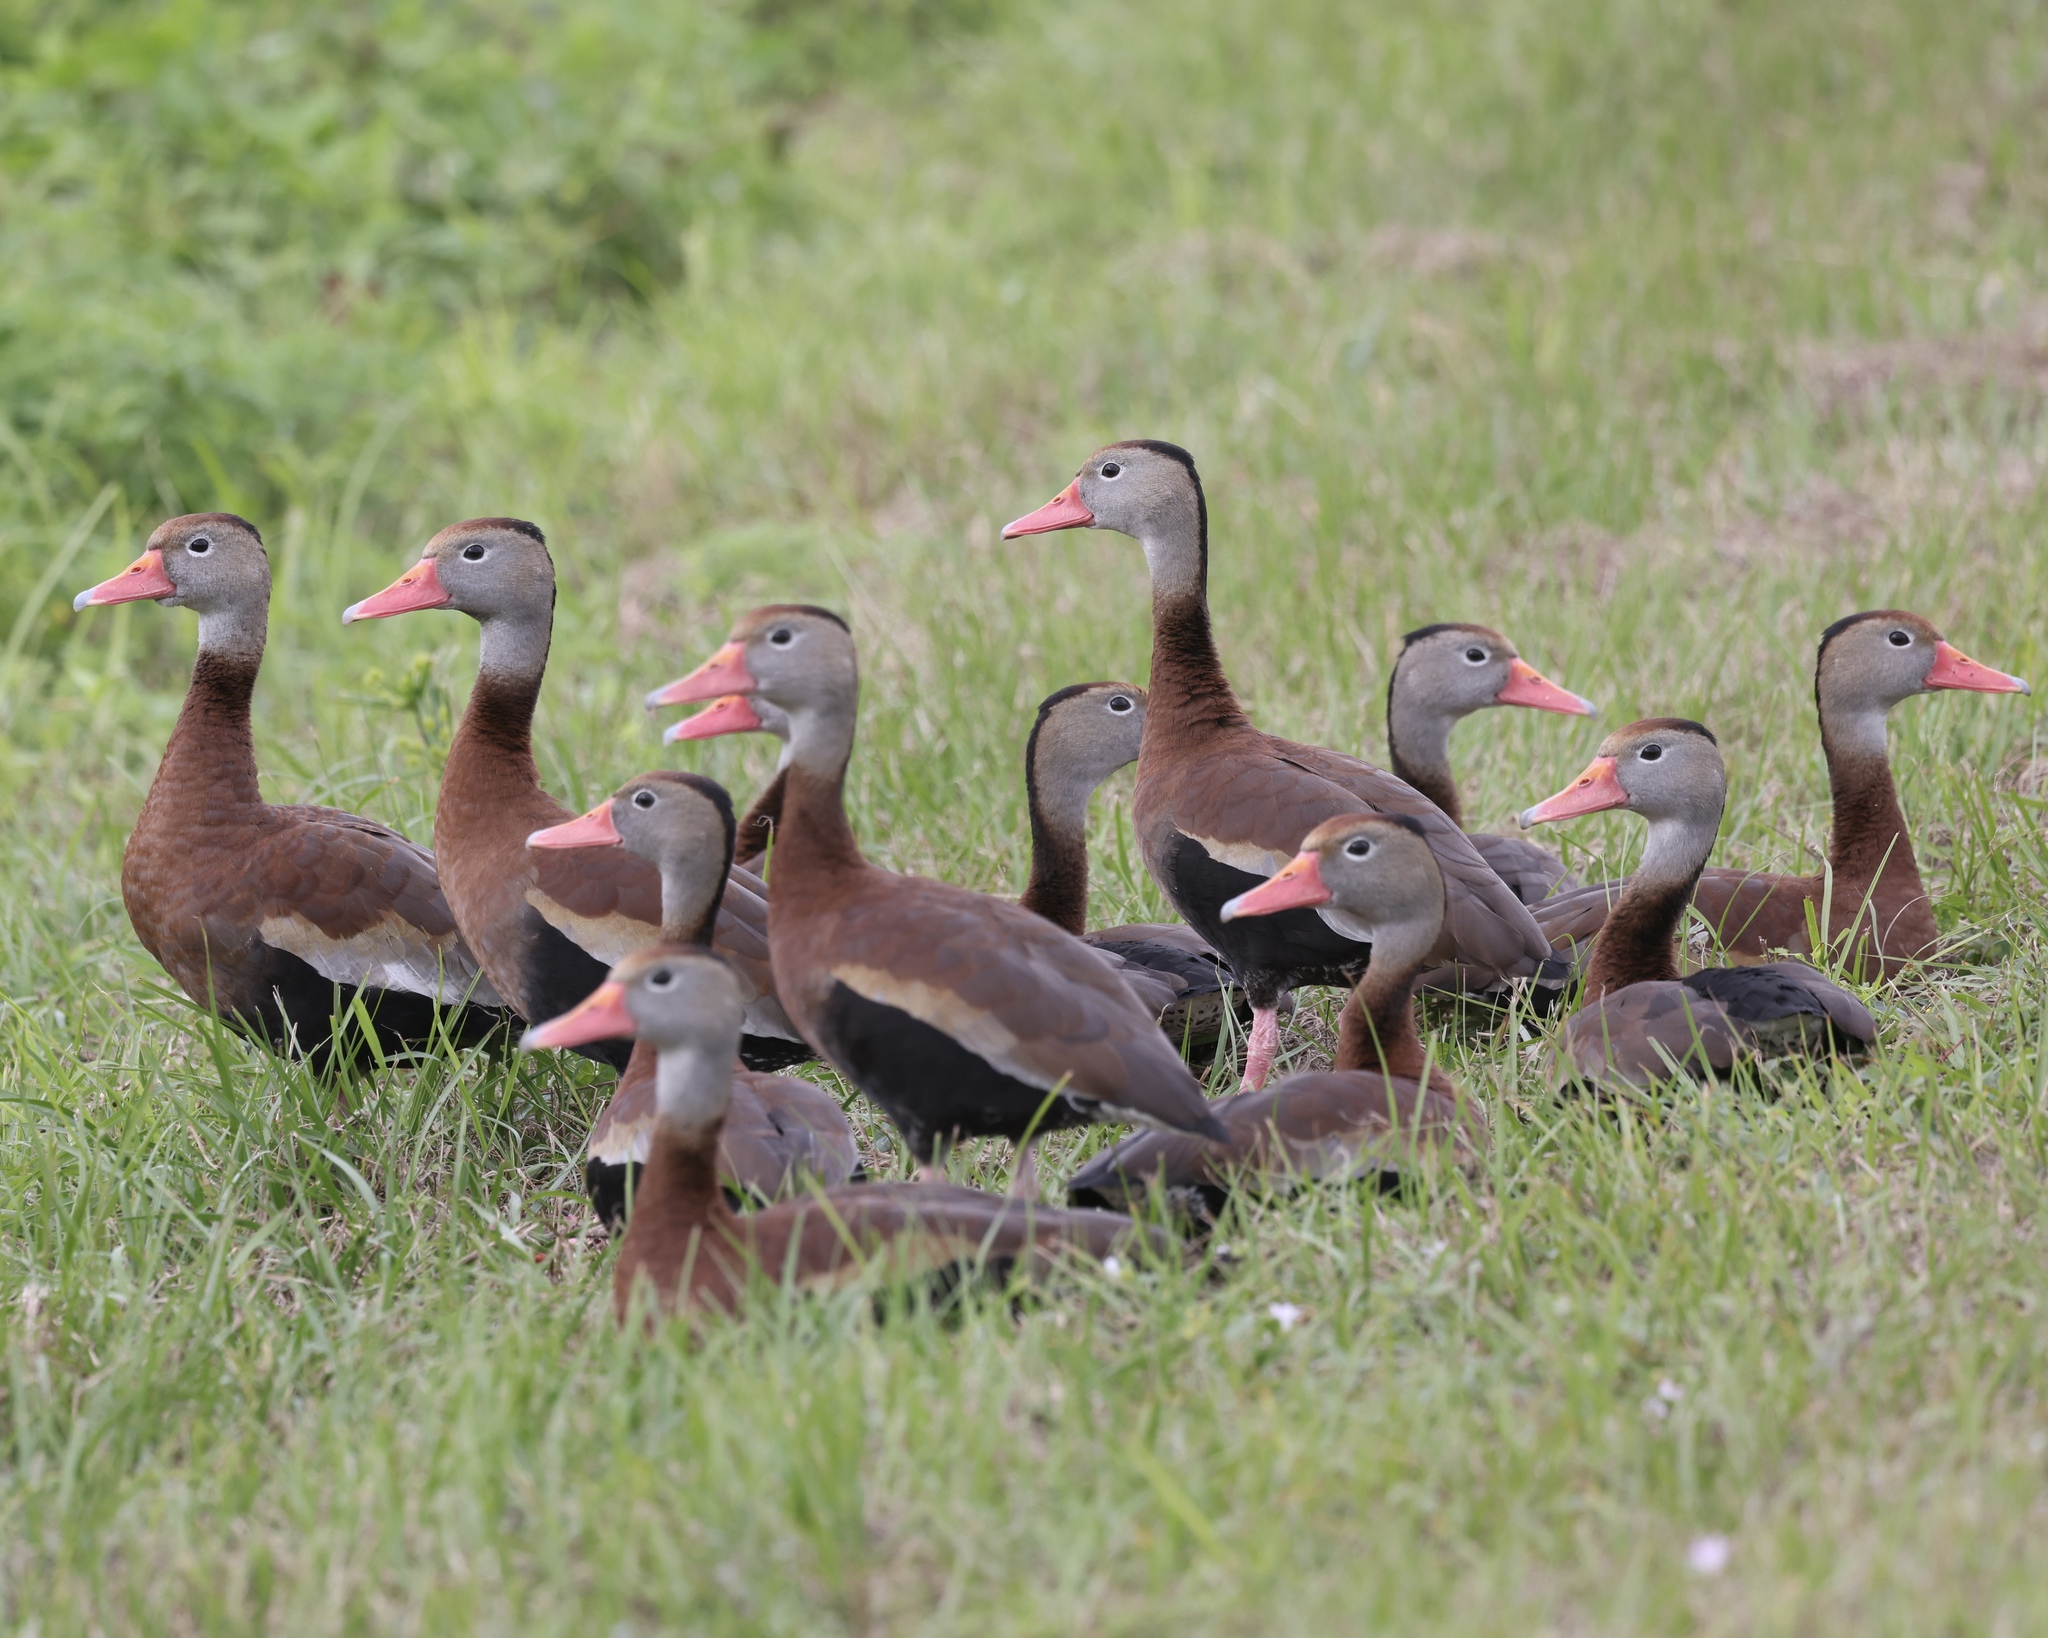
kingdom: Animalia
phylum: Chordata
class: Aves
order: Anseriformes
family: Anatidae
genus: Dendrocygna
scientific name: Dendrocygna autumnalis
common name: Black-bellied whistling duck
